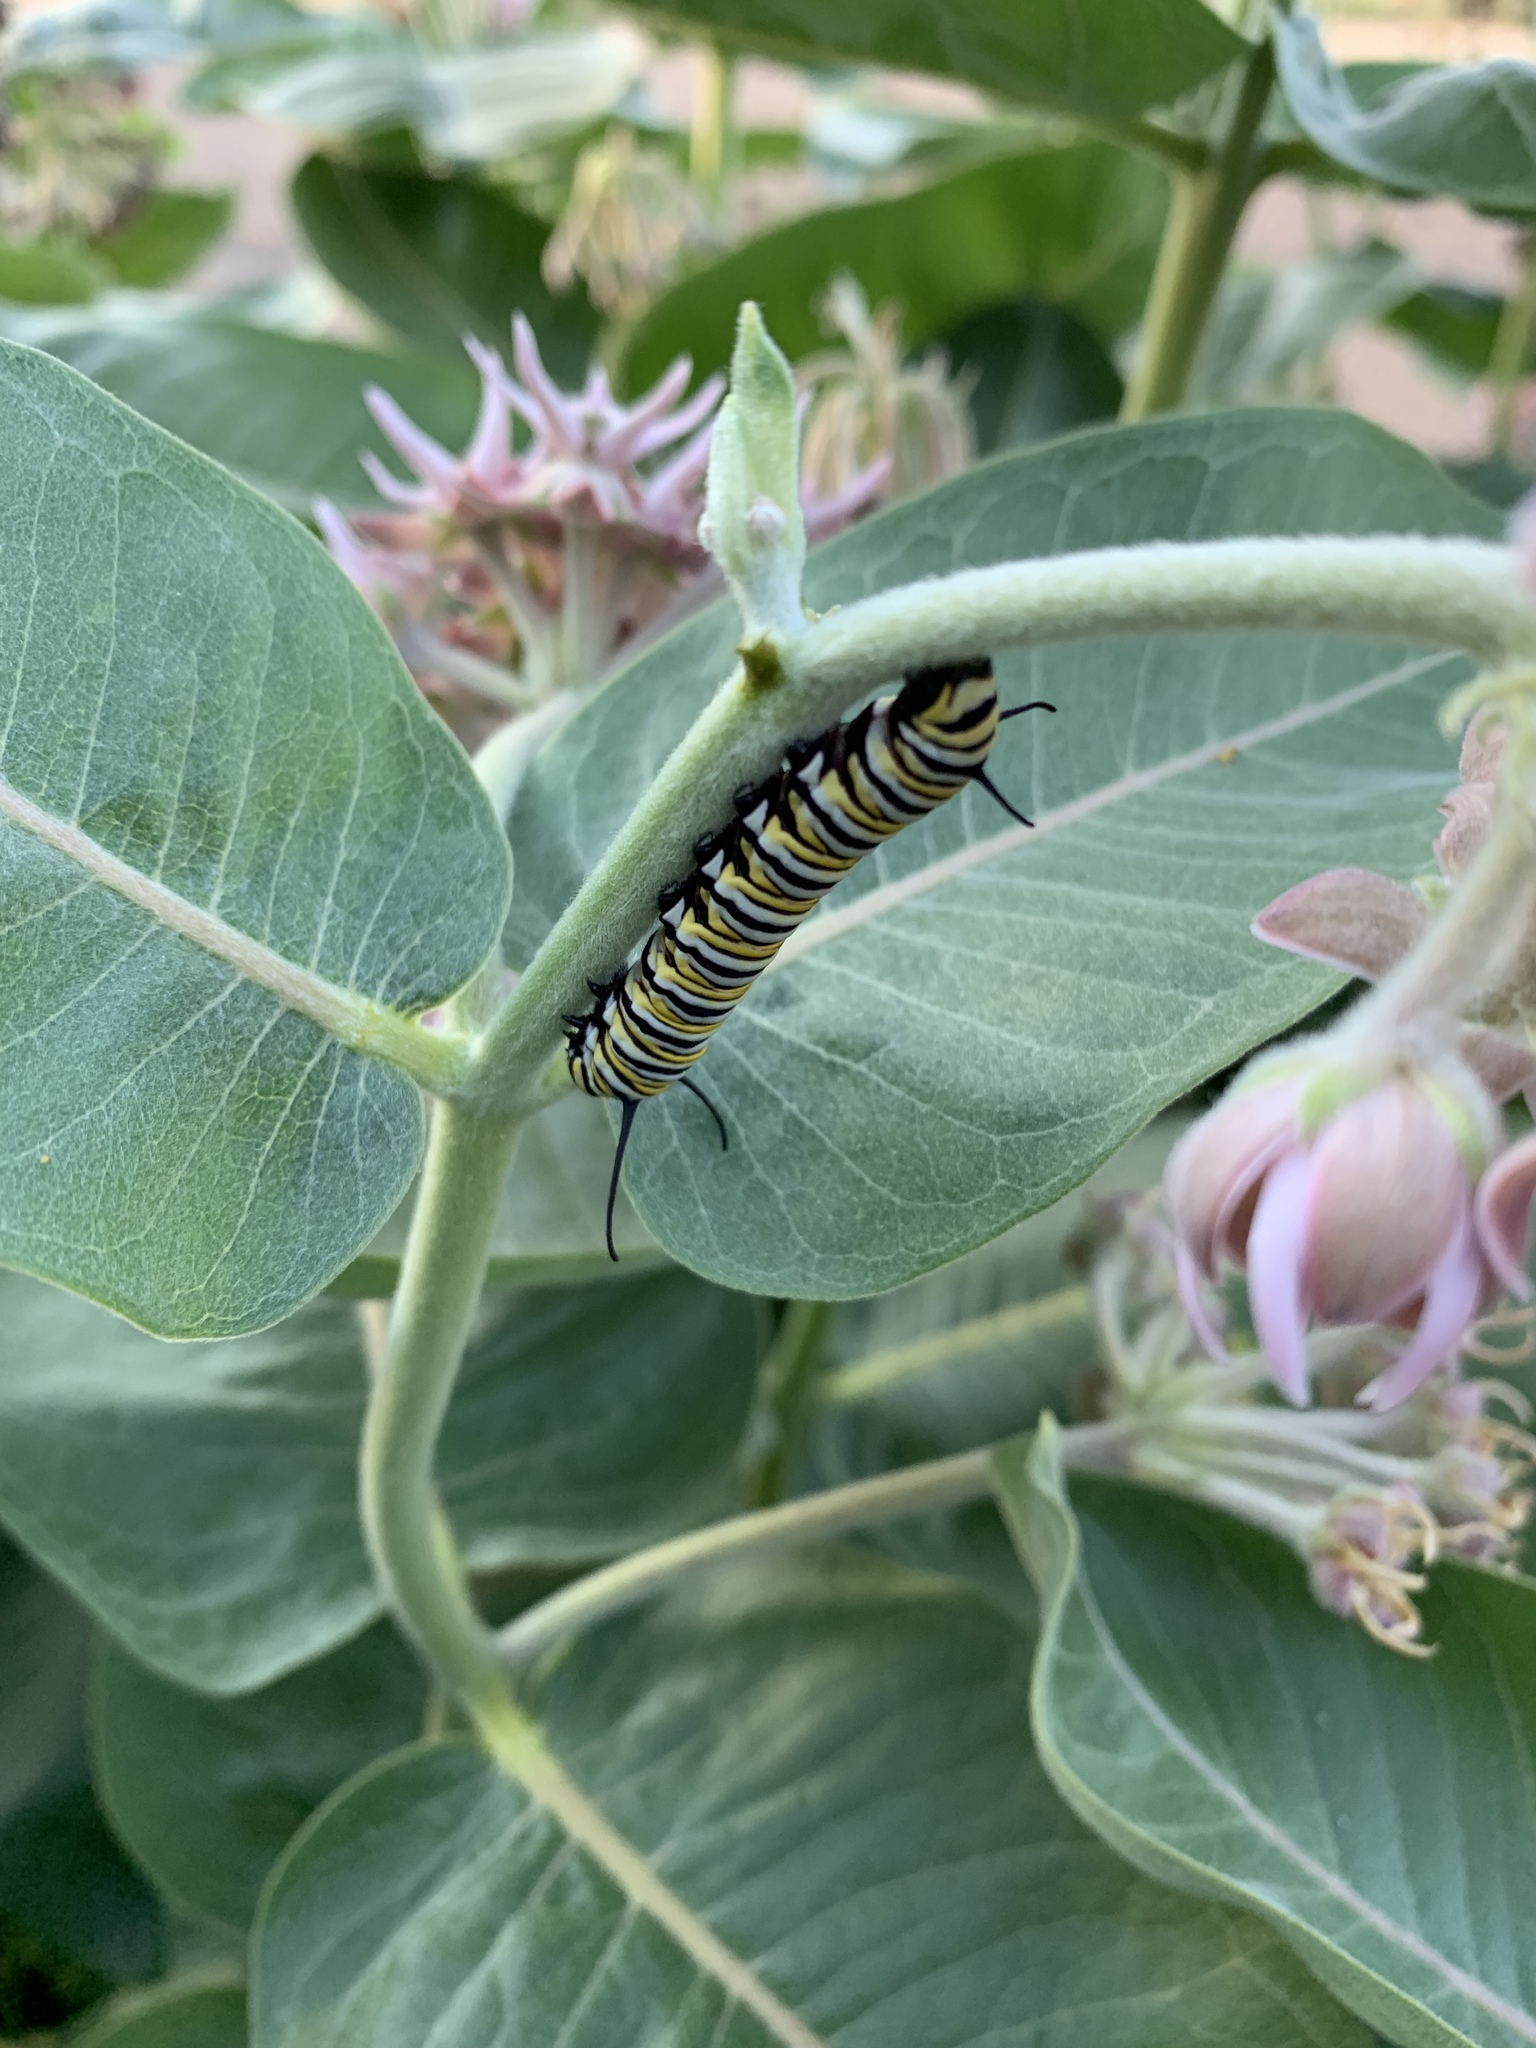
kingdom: Animalia
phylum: Arthropoda
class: Insecta
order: Lepidoptera
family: Nymphalidae
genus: Danaus
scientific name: Danaus plexippus
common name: Monarch
